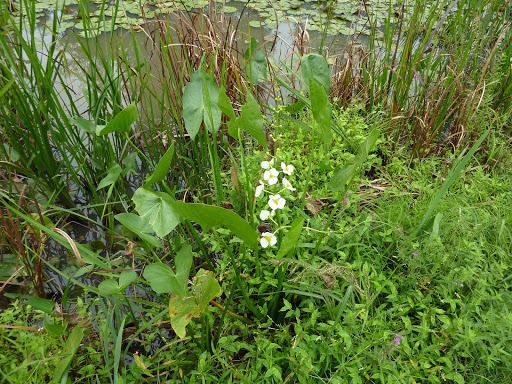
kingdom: Plantae
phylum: Tracheophyta
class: Liliopsida
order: Alismatales
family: Alismataceae
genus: Sagittaria
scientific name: Sagittaria latifolia
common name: Duck-potato
